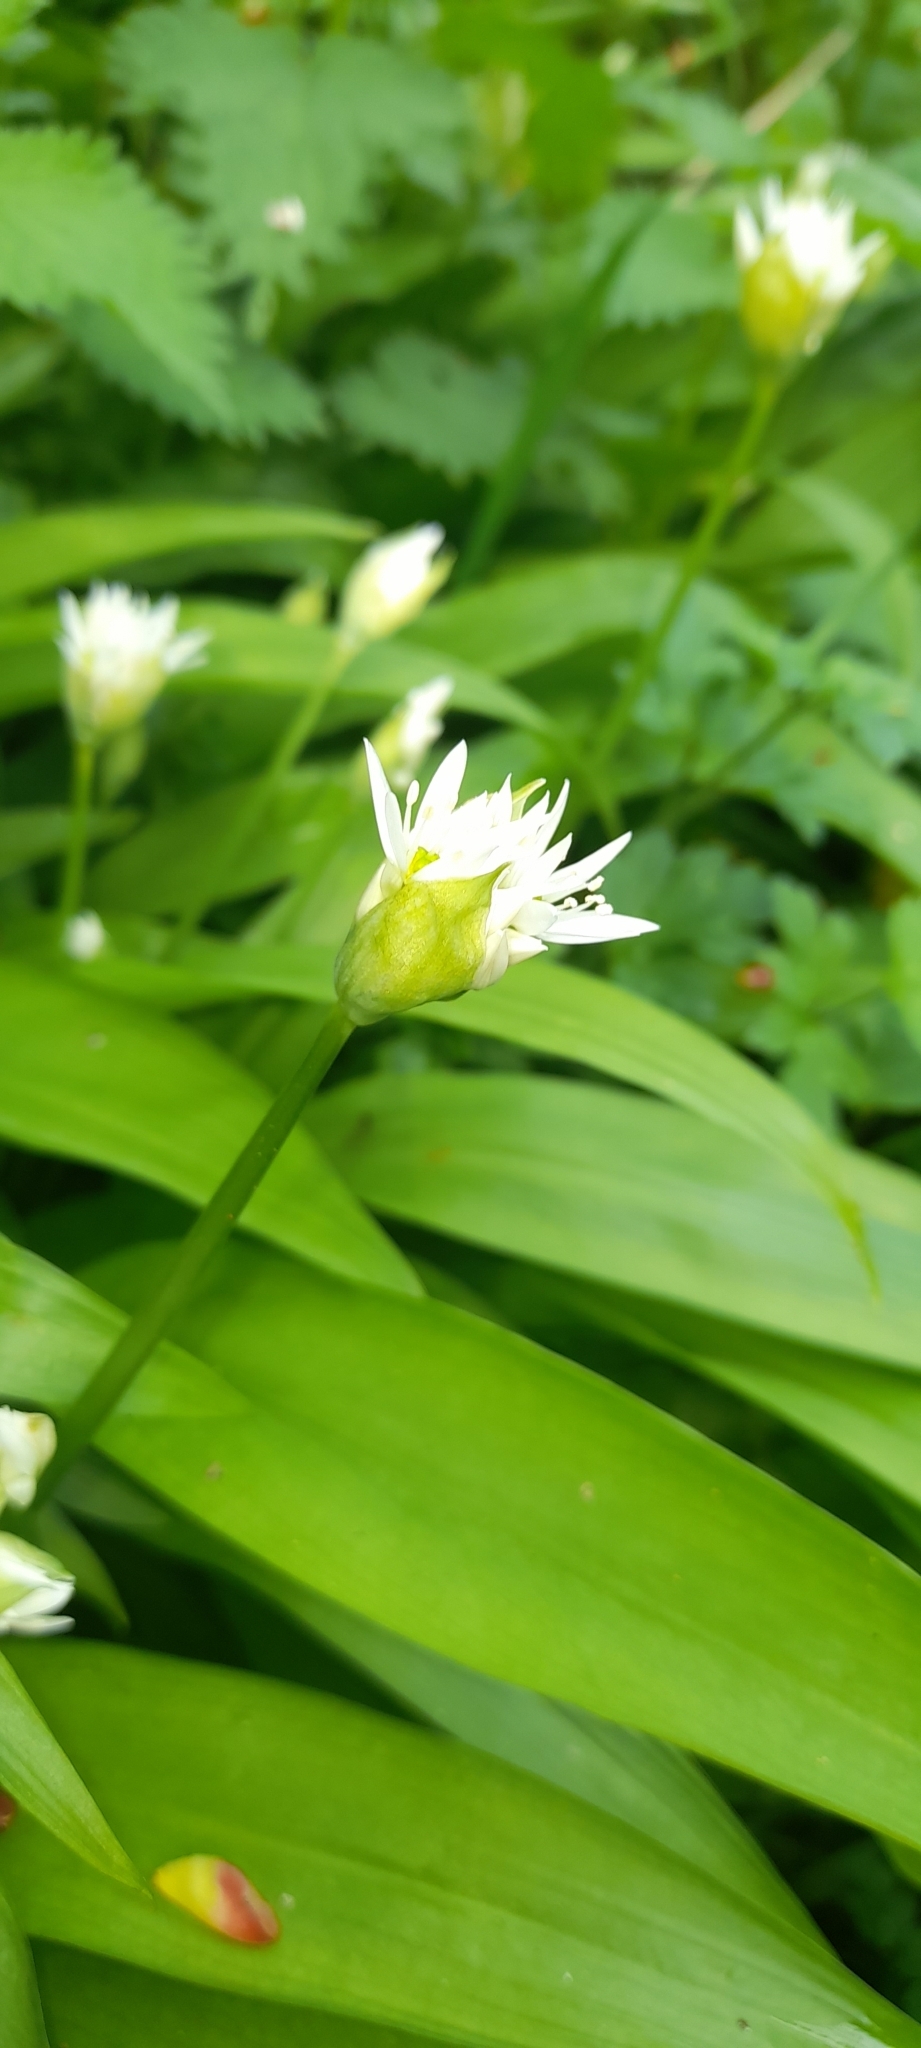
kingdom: Plantae
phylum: Tracheophyta
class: Liliopsida
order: Asparagales
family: Amaryllidaceae
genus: Allium
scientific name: Allium ursinum
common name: Ramsons
